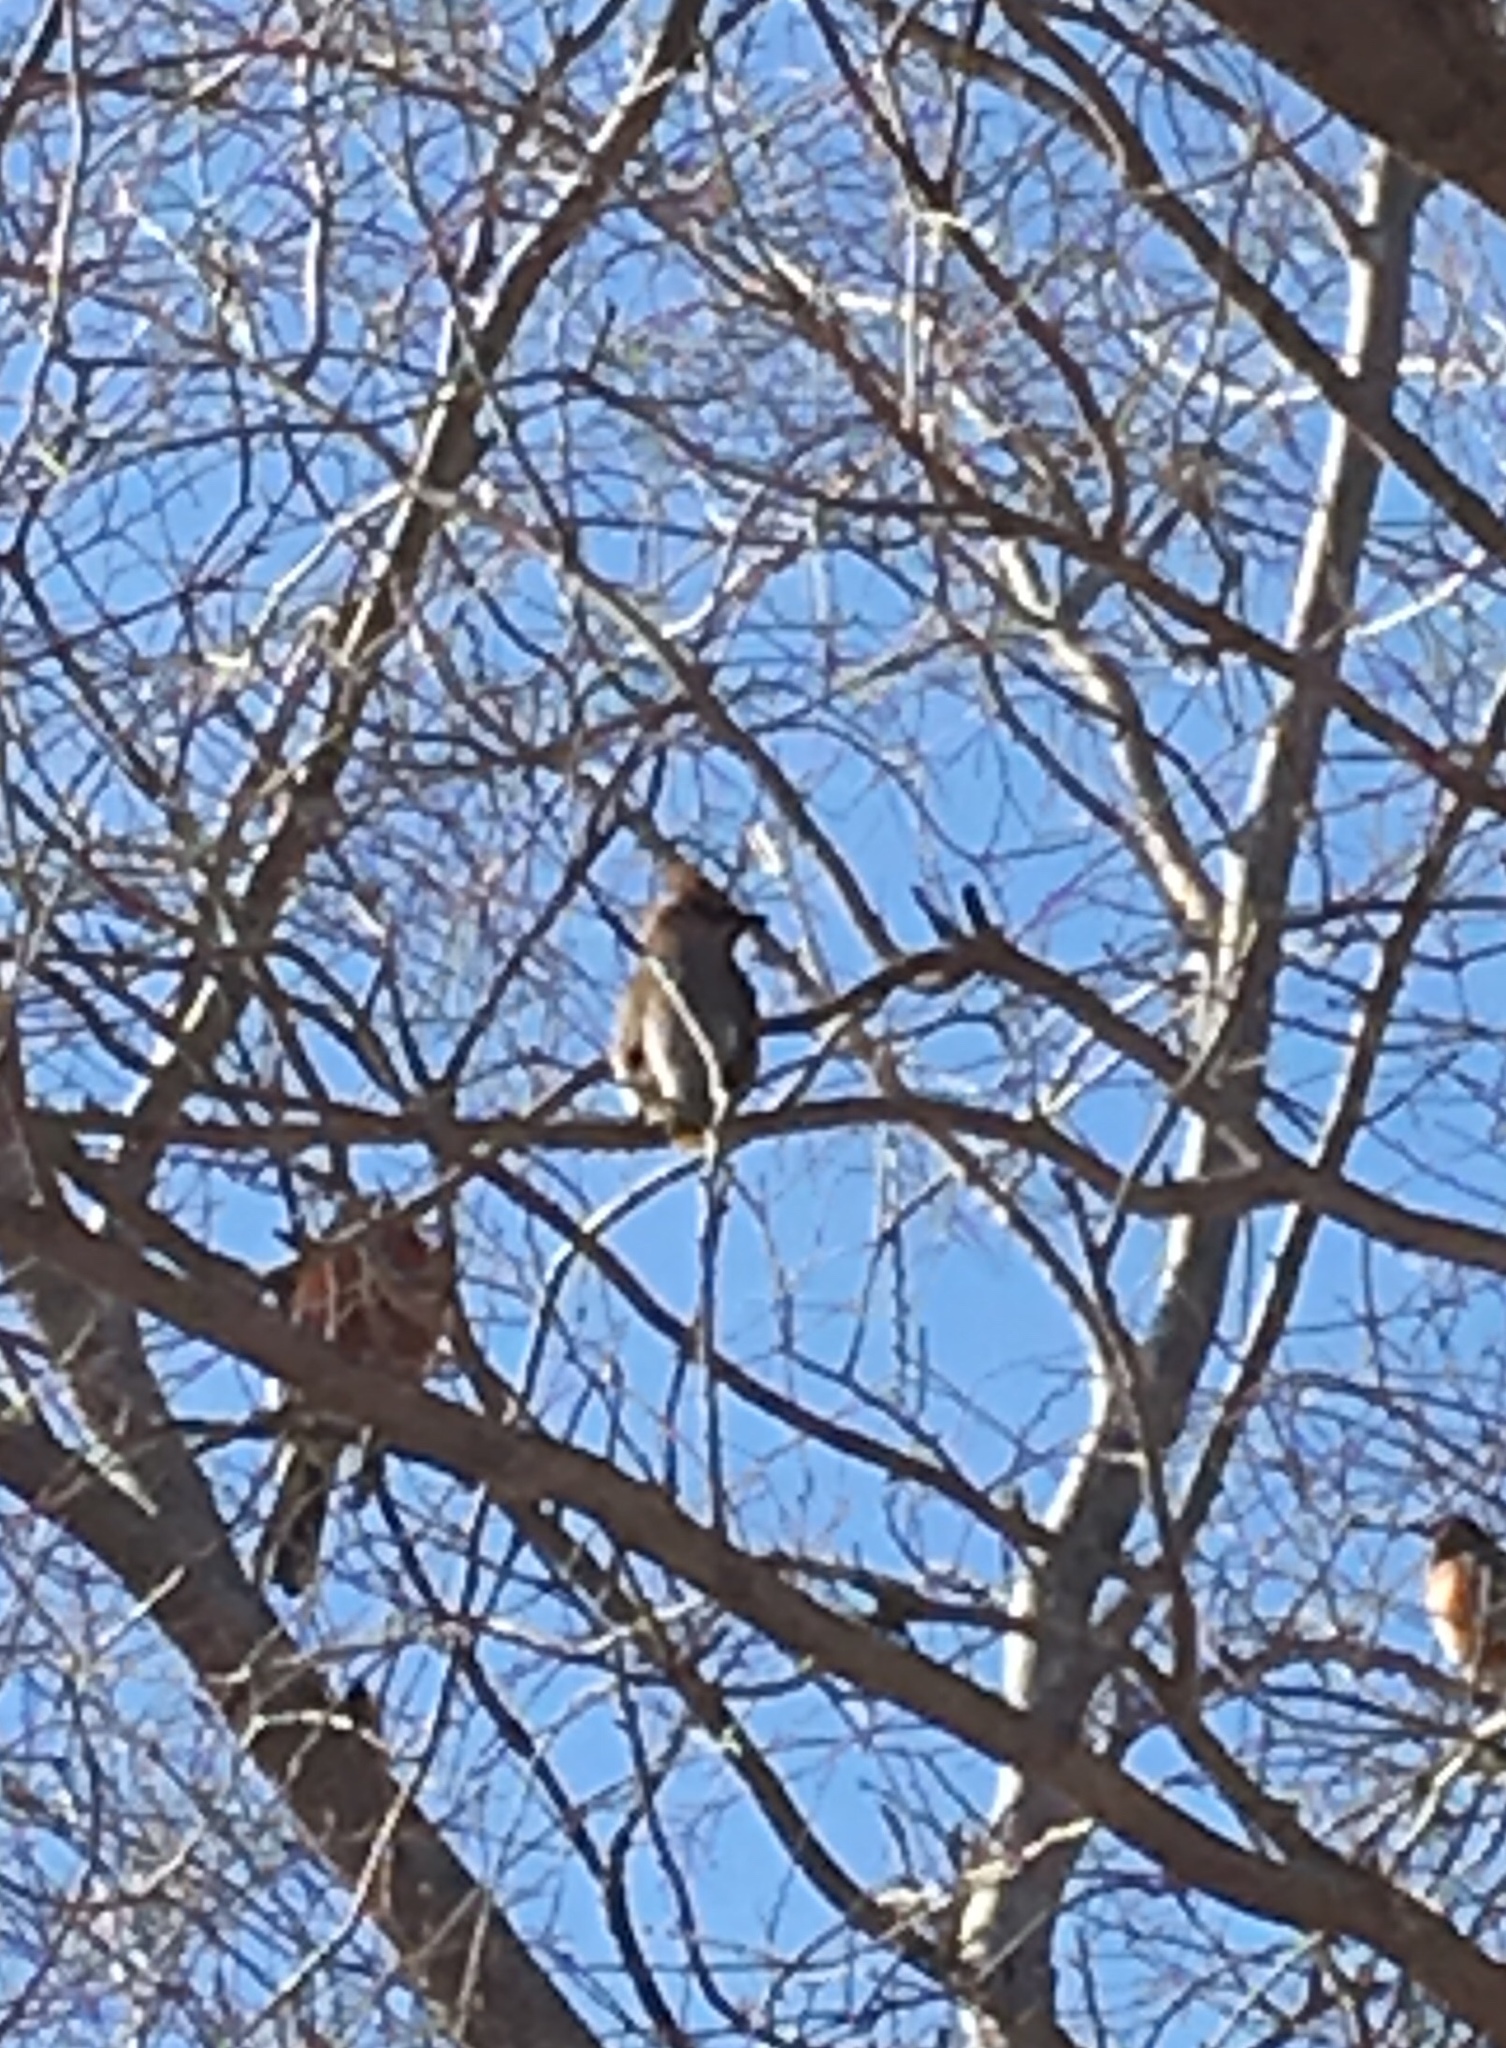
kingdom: Animalia
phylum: Chordata
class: Aves
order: Passeriformes
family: Bombycillidae
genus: Bombycilla
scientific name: Bombycilla cedrorum
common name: Cedar waxwing
